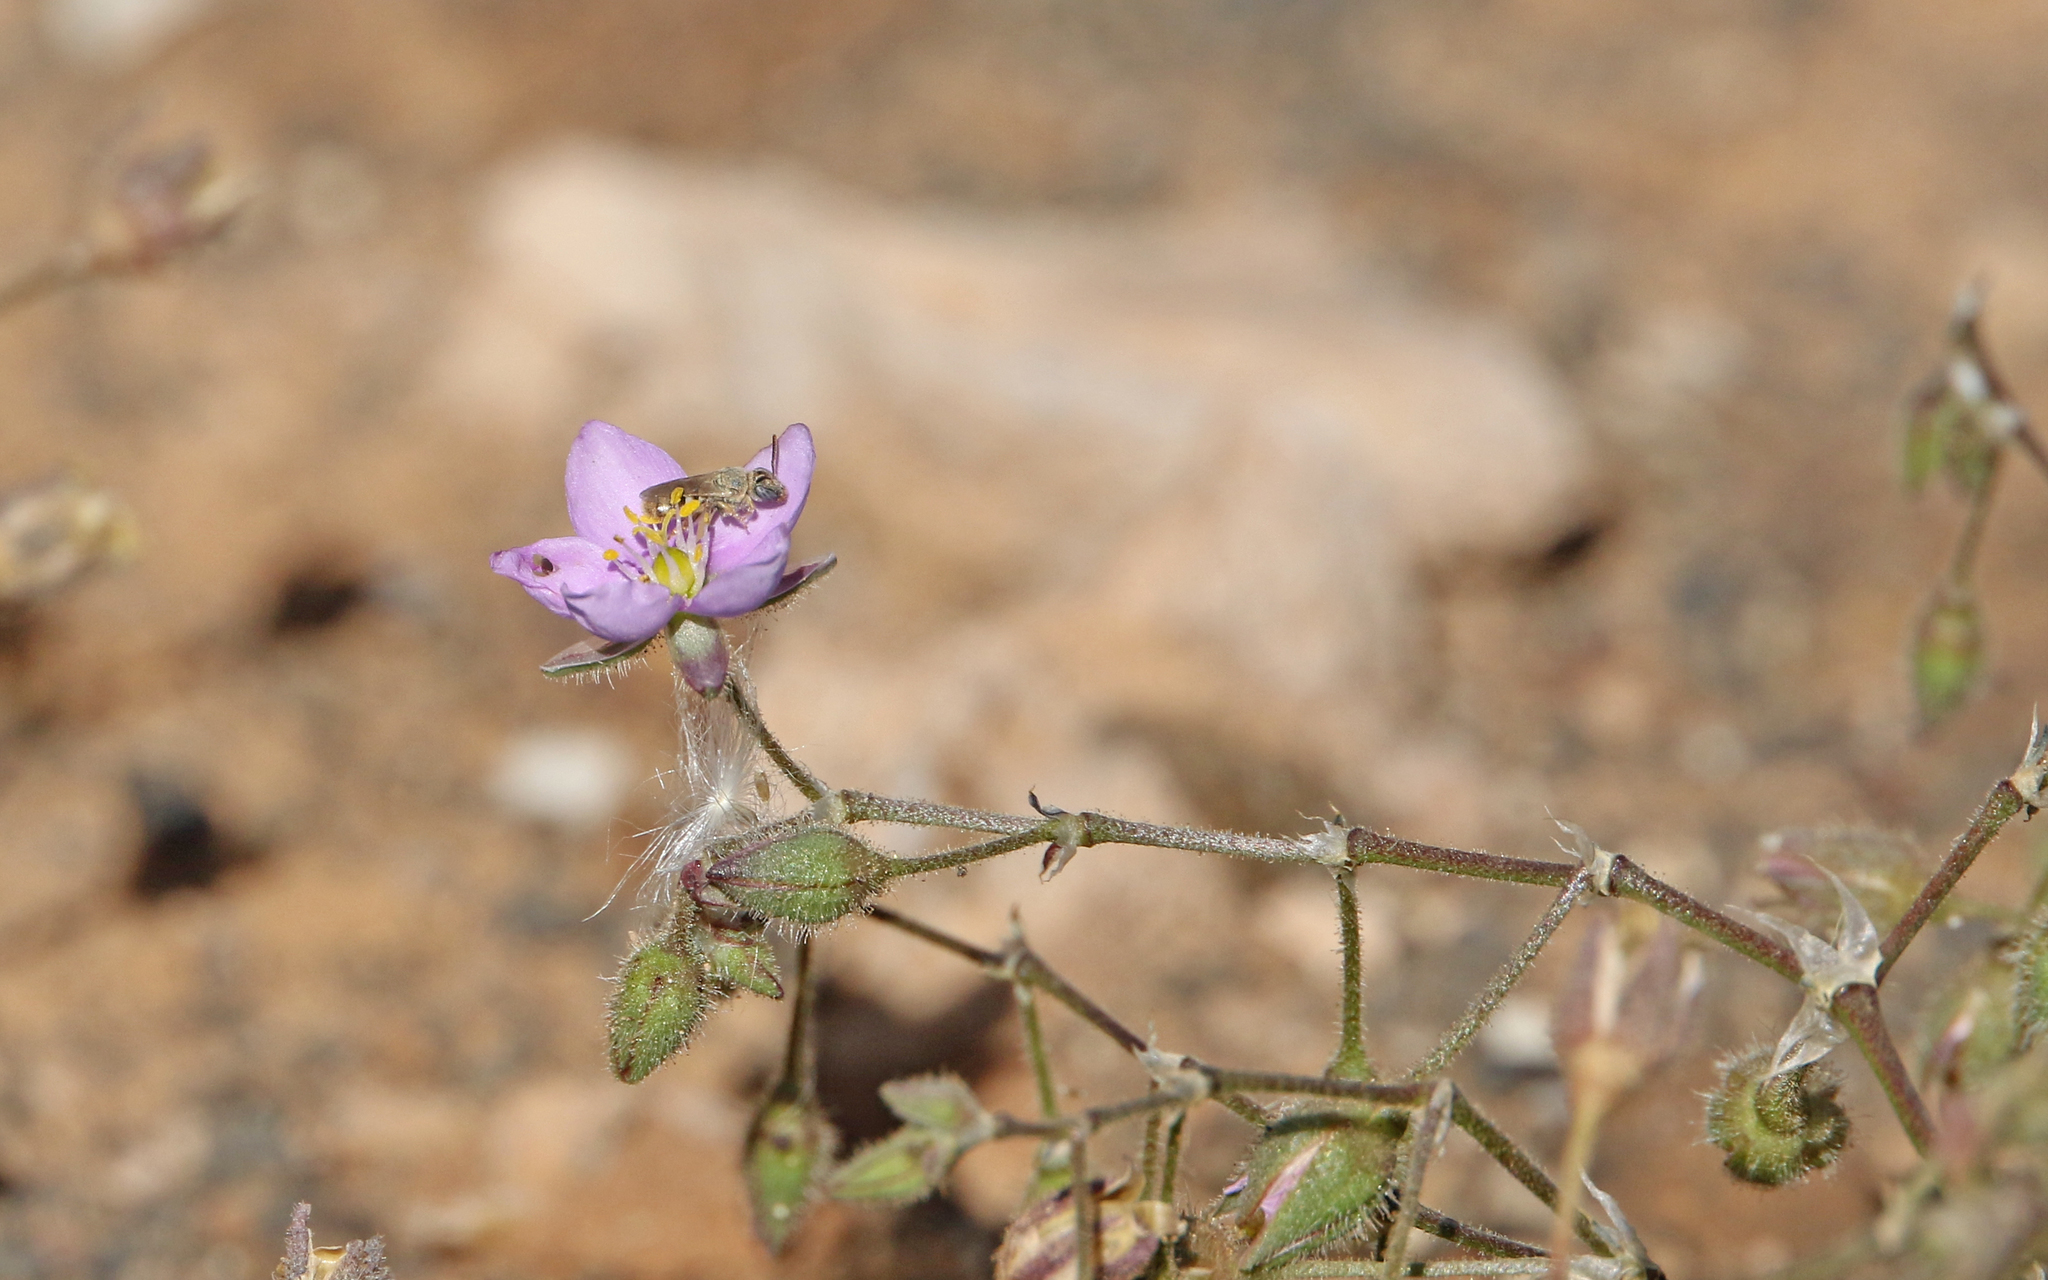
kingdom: Animalia
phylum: Arthropoda
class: Insecta
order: Hymenoptera
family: Halictidae
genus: Nomioides
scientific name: Nomioides deceptor
